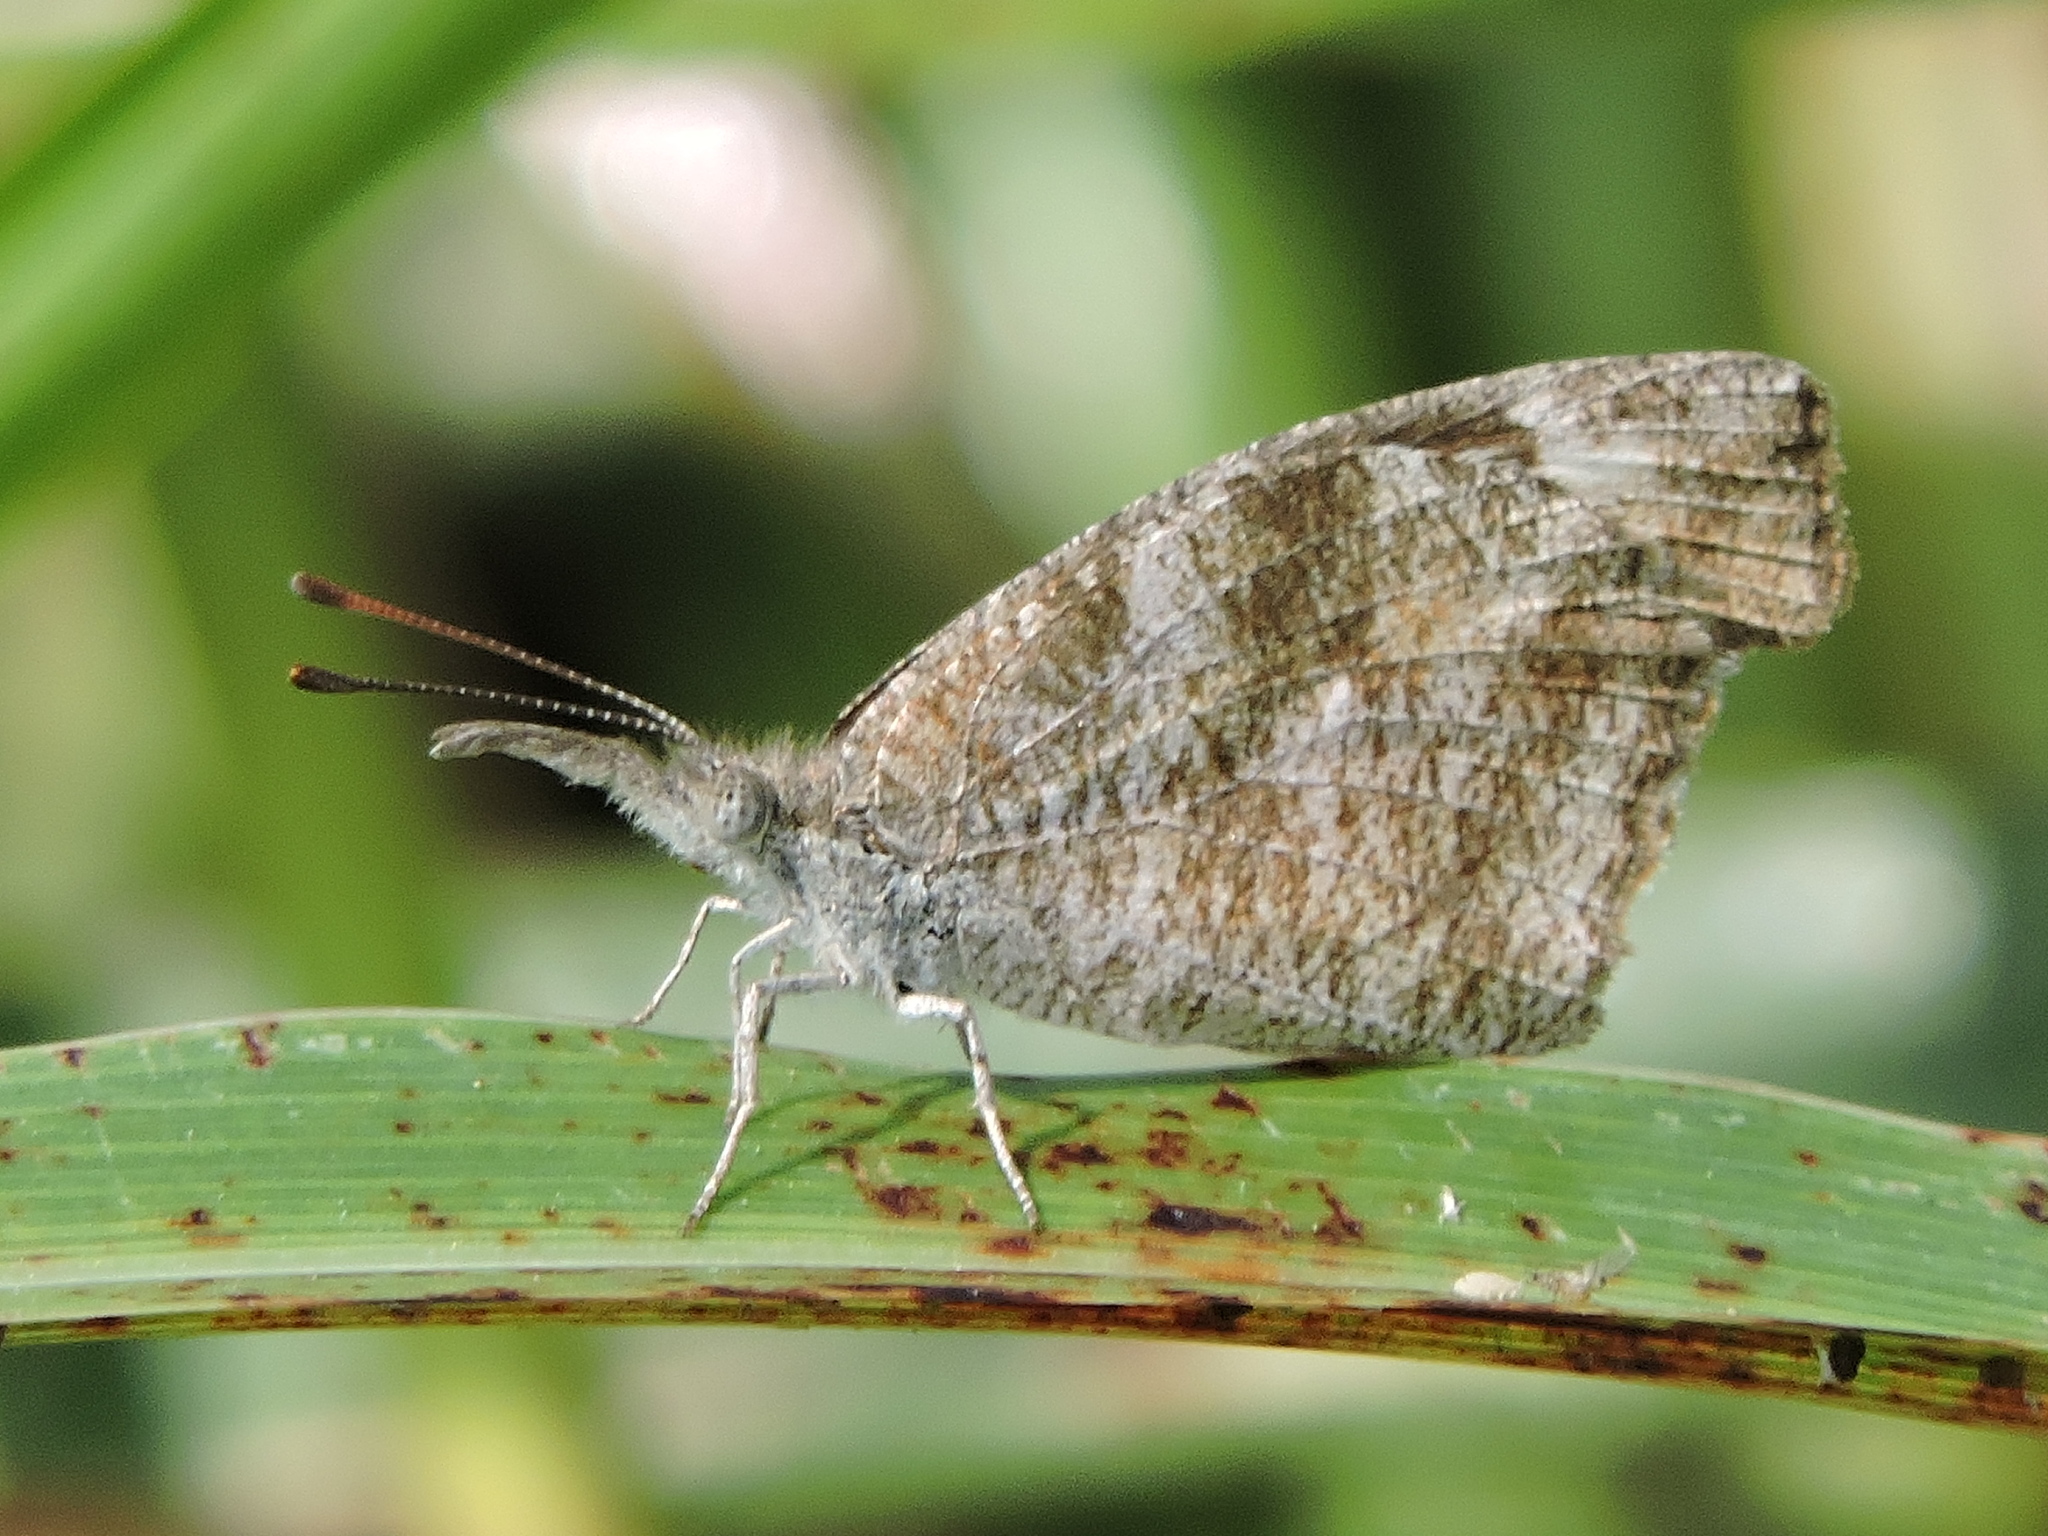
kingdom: Animalia
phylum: Arthropoda
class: Insecta
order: Lepidoptera
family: Nymphalidae
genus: Libytheana
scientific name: Libytheana carinenta
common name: American snout
